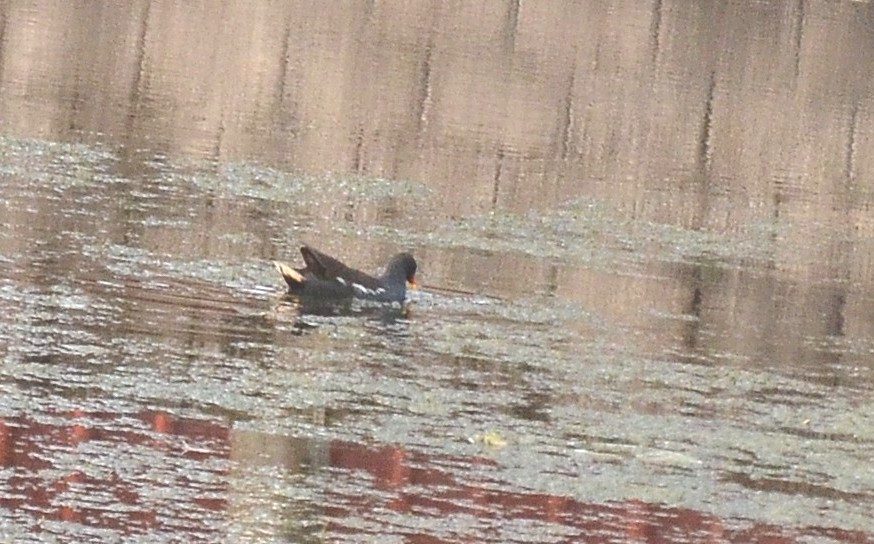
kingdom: Animalia
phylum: Chordata
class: Aves
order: Gruiformes
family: Rallidae
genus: Gallinula
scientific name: Gallinula chloropus
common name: Common moorhen
